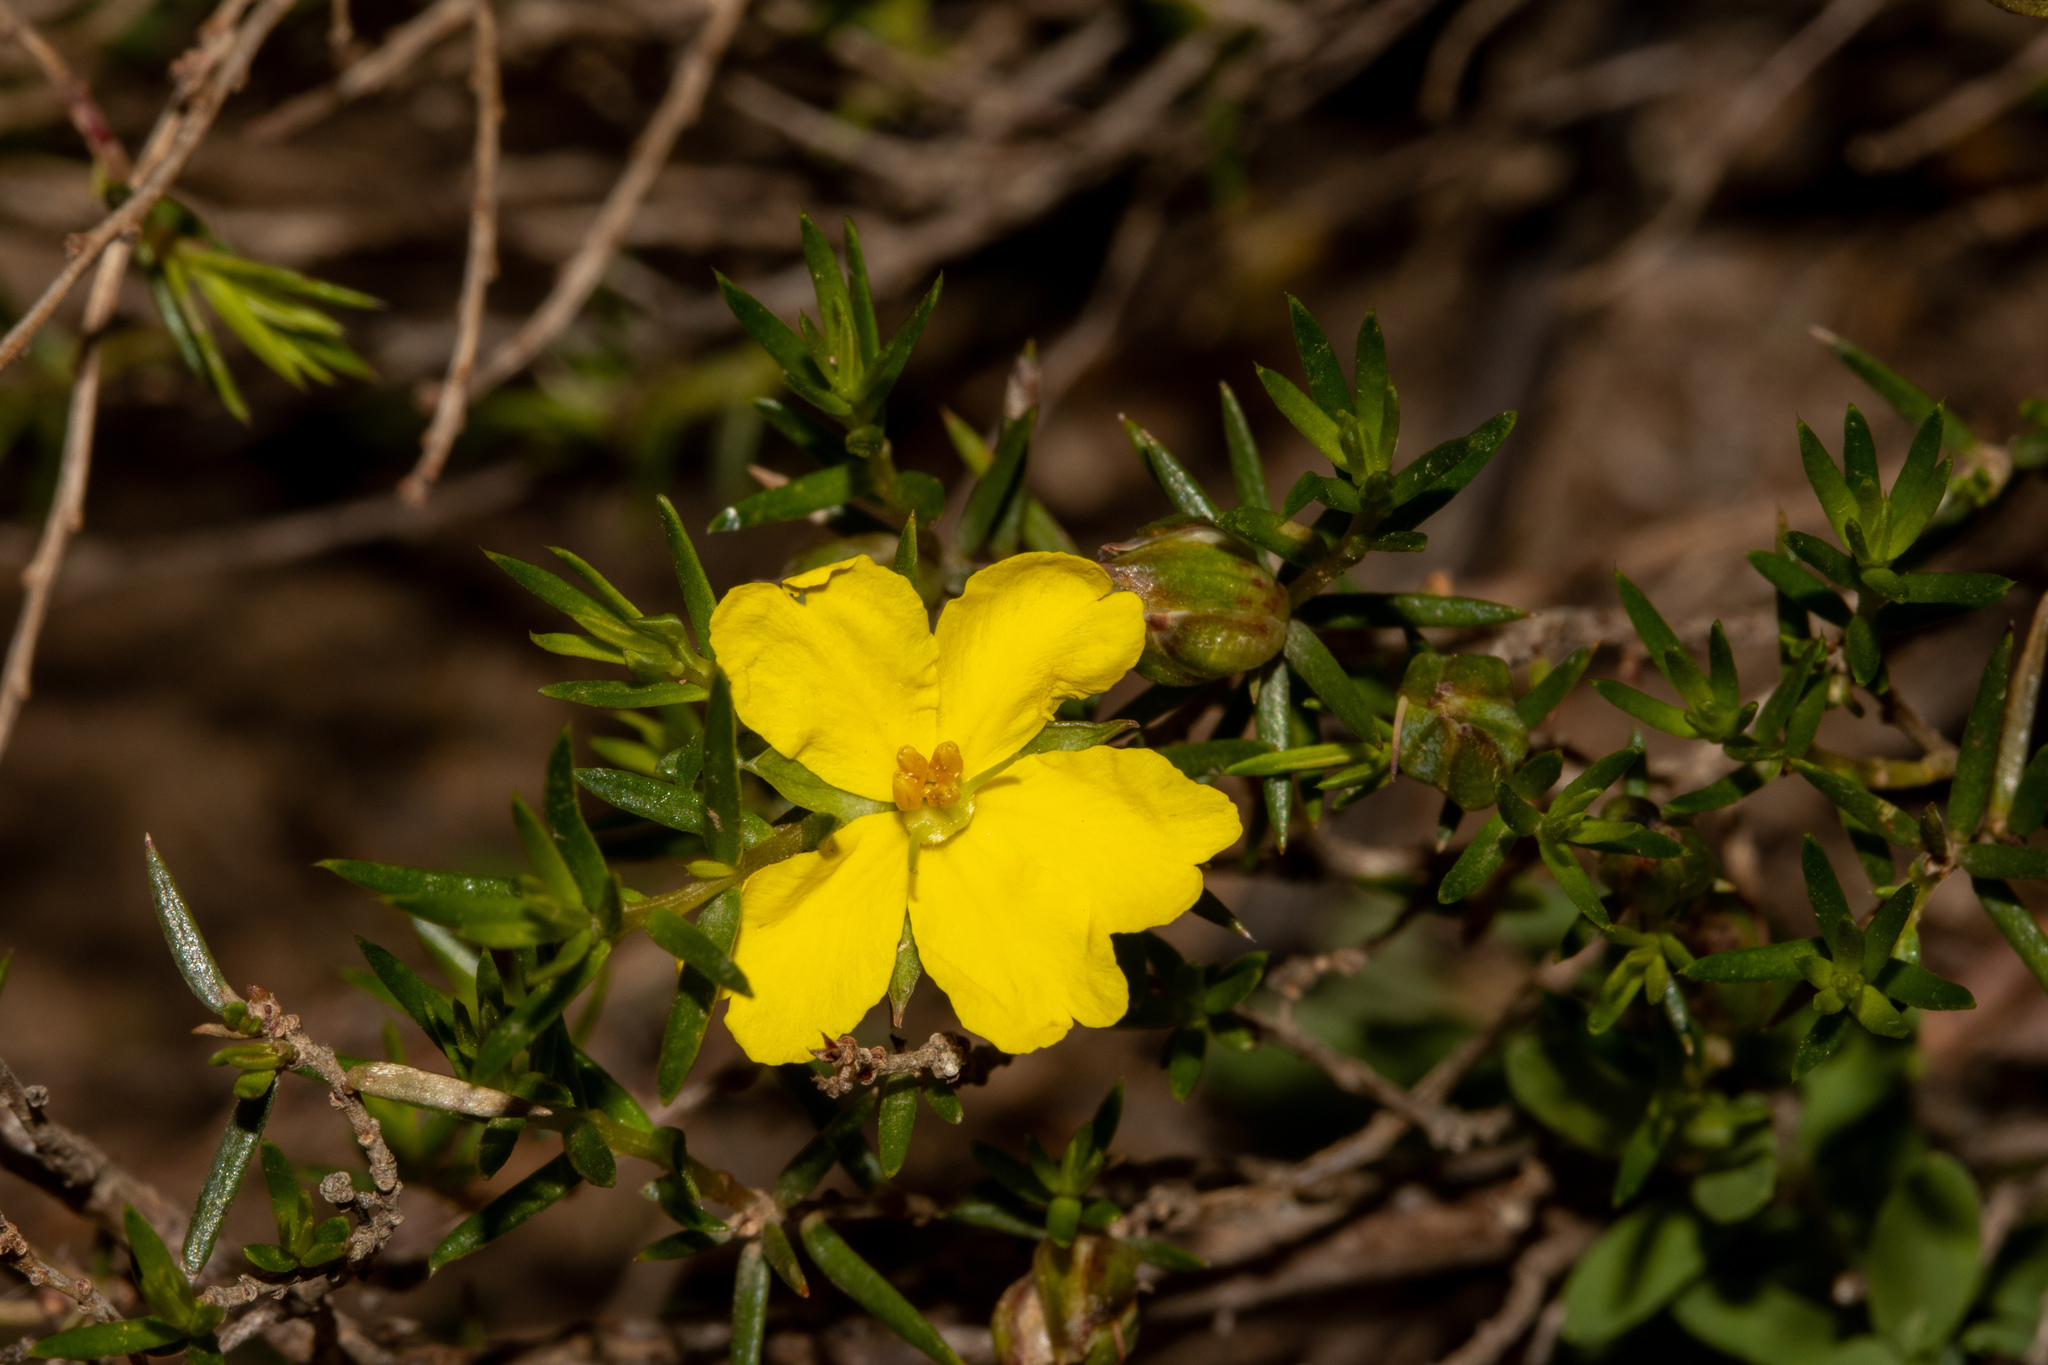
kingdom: Plantae
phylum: Tracheophyta
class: Magnoliopsida
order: Dilleniales
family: Dilleniaceae
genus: Hibbertia
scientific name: Hibbertia exutiacies
